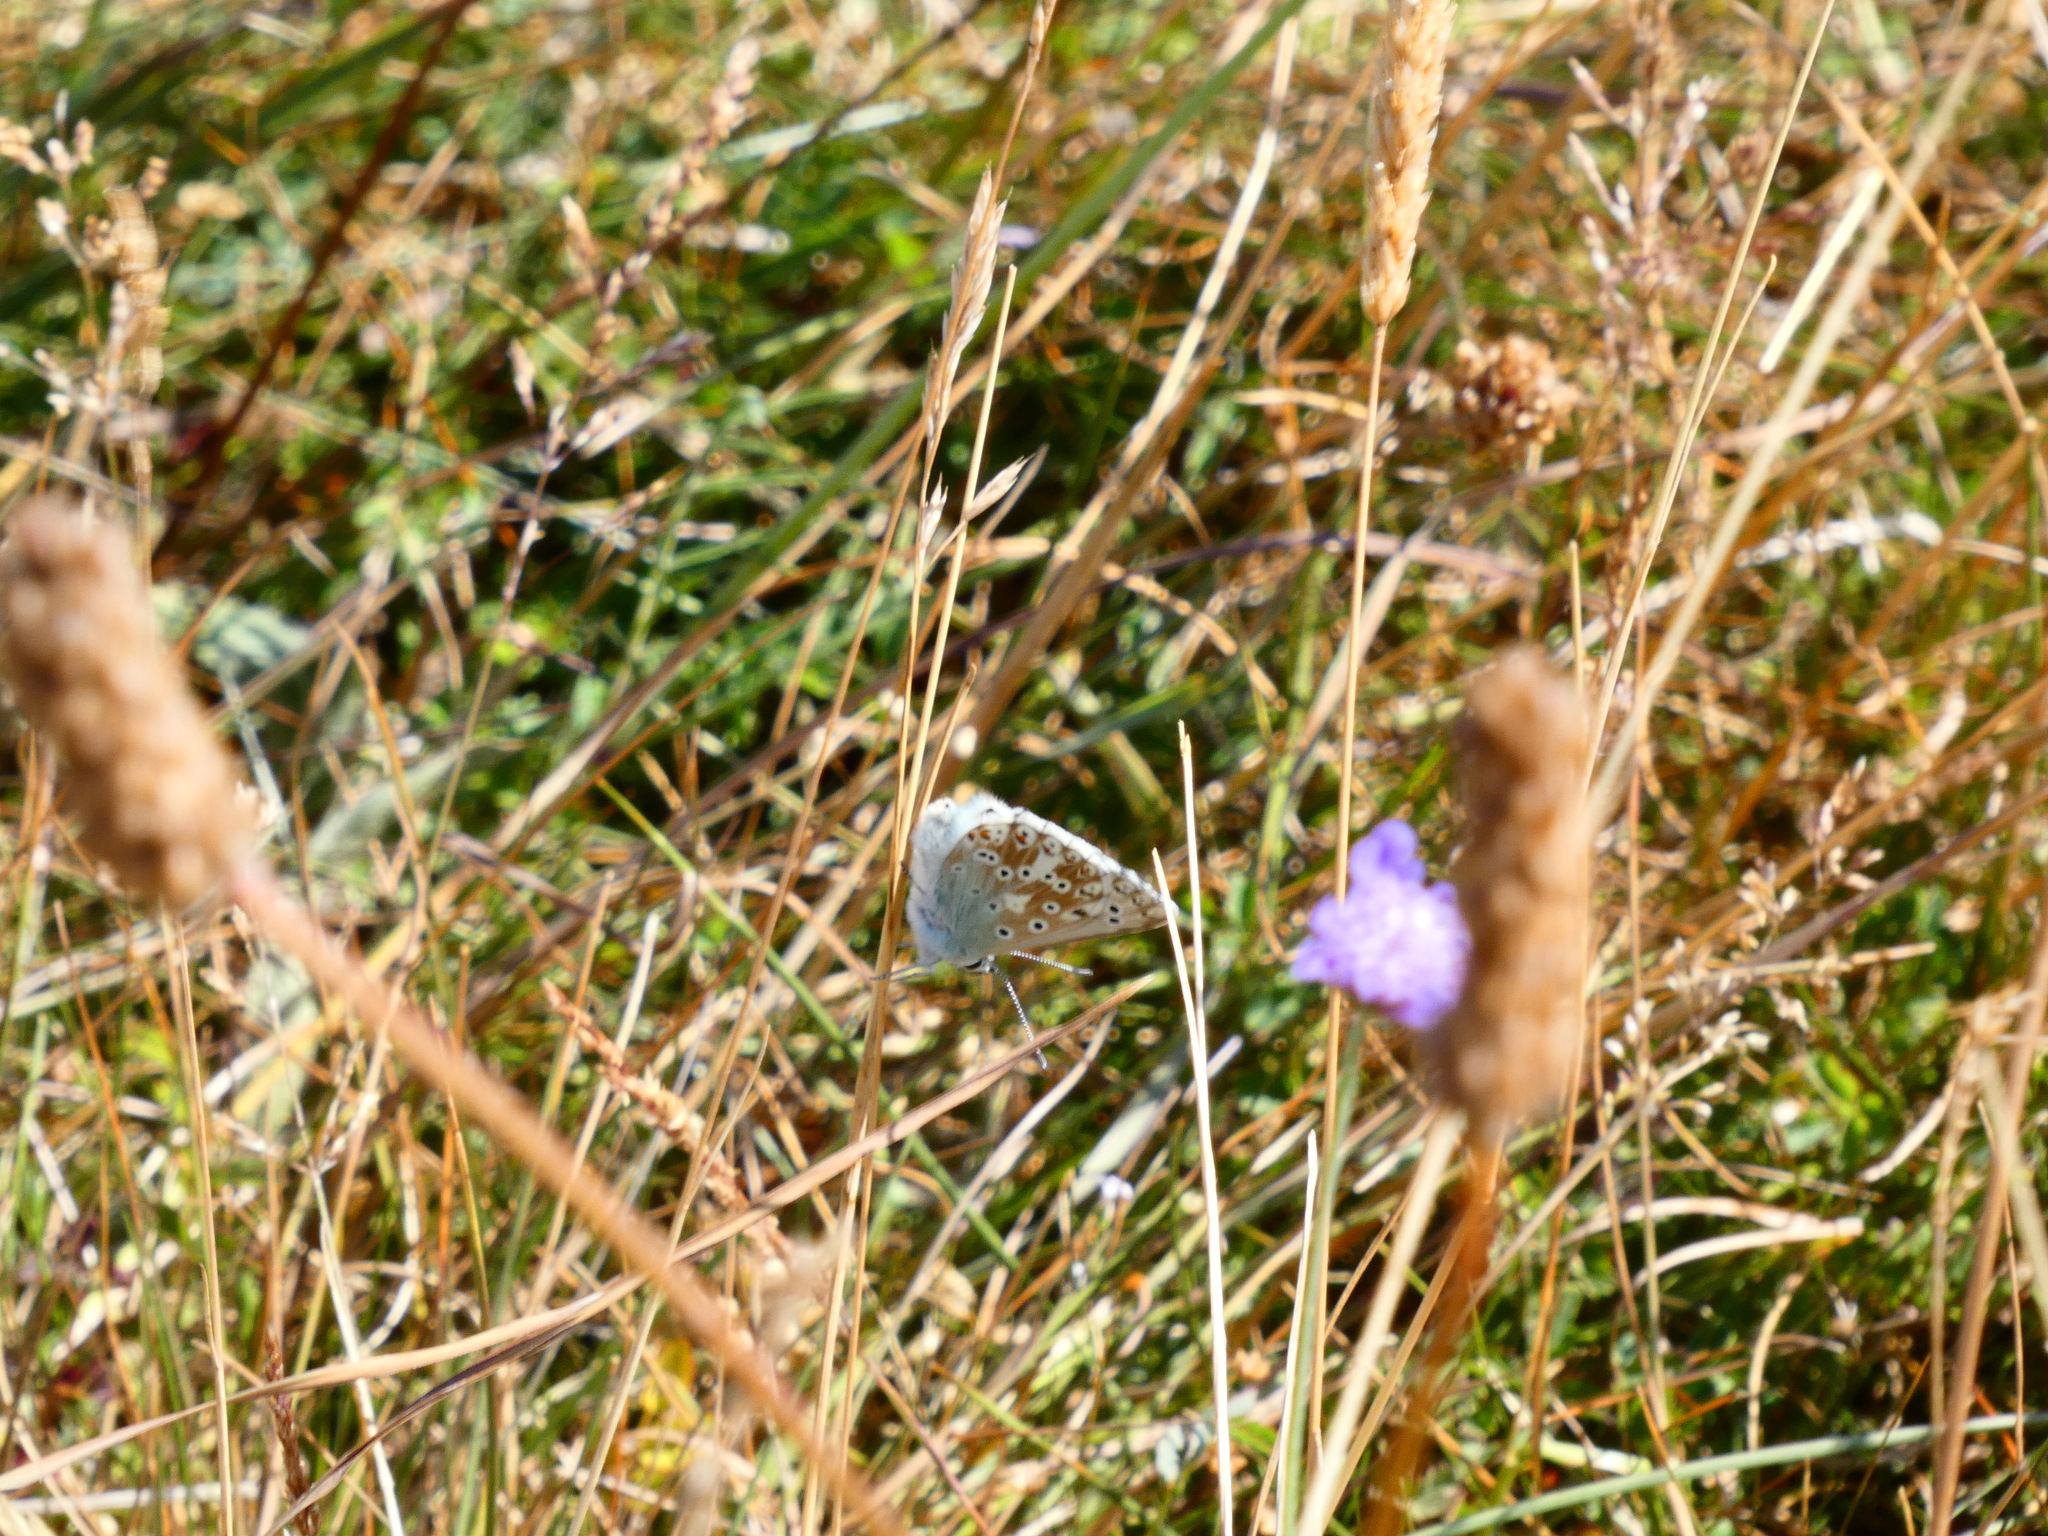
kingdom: Animalia
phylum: Arthropoda
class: Insecta
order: Lepidoptera
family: Lycaenidae
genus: Lysandra
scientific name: Lysandra coridon
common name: Chalkhill blue
